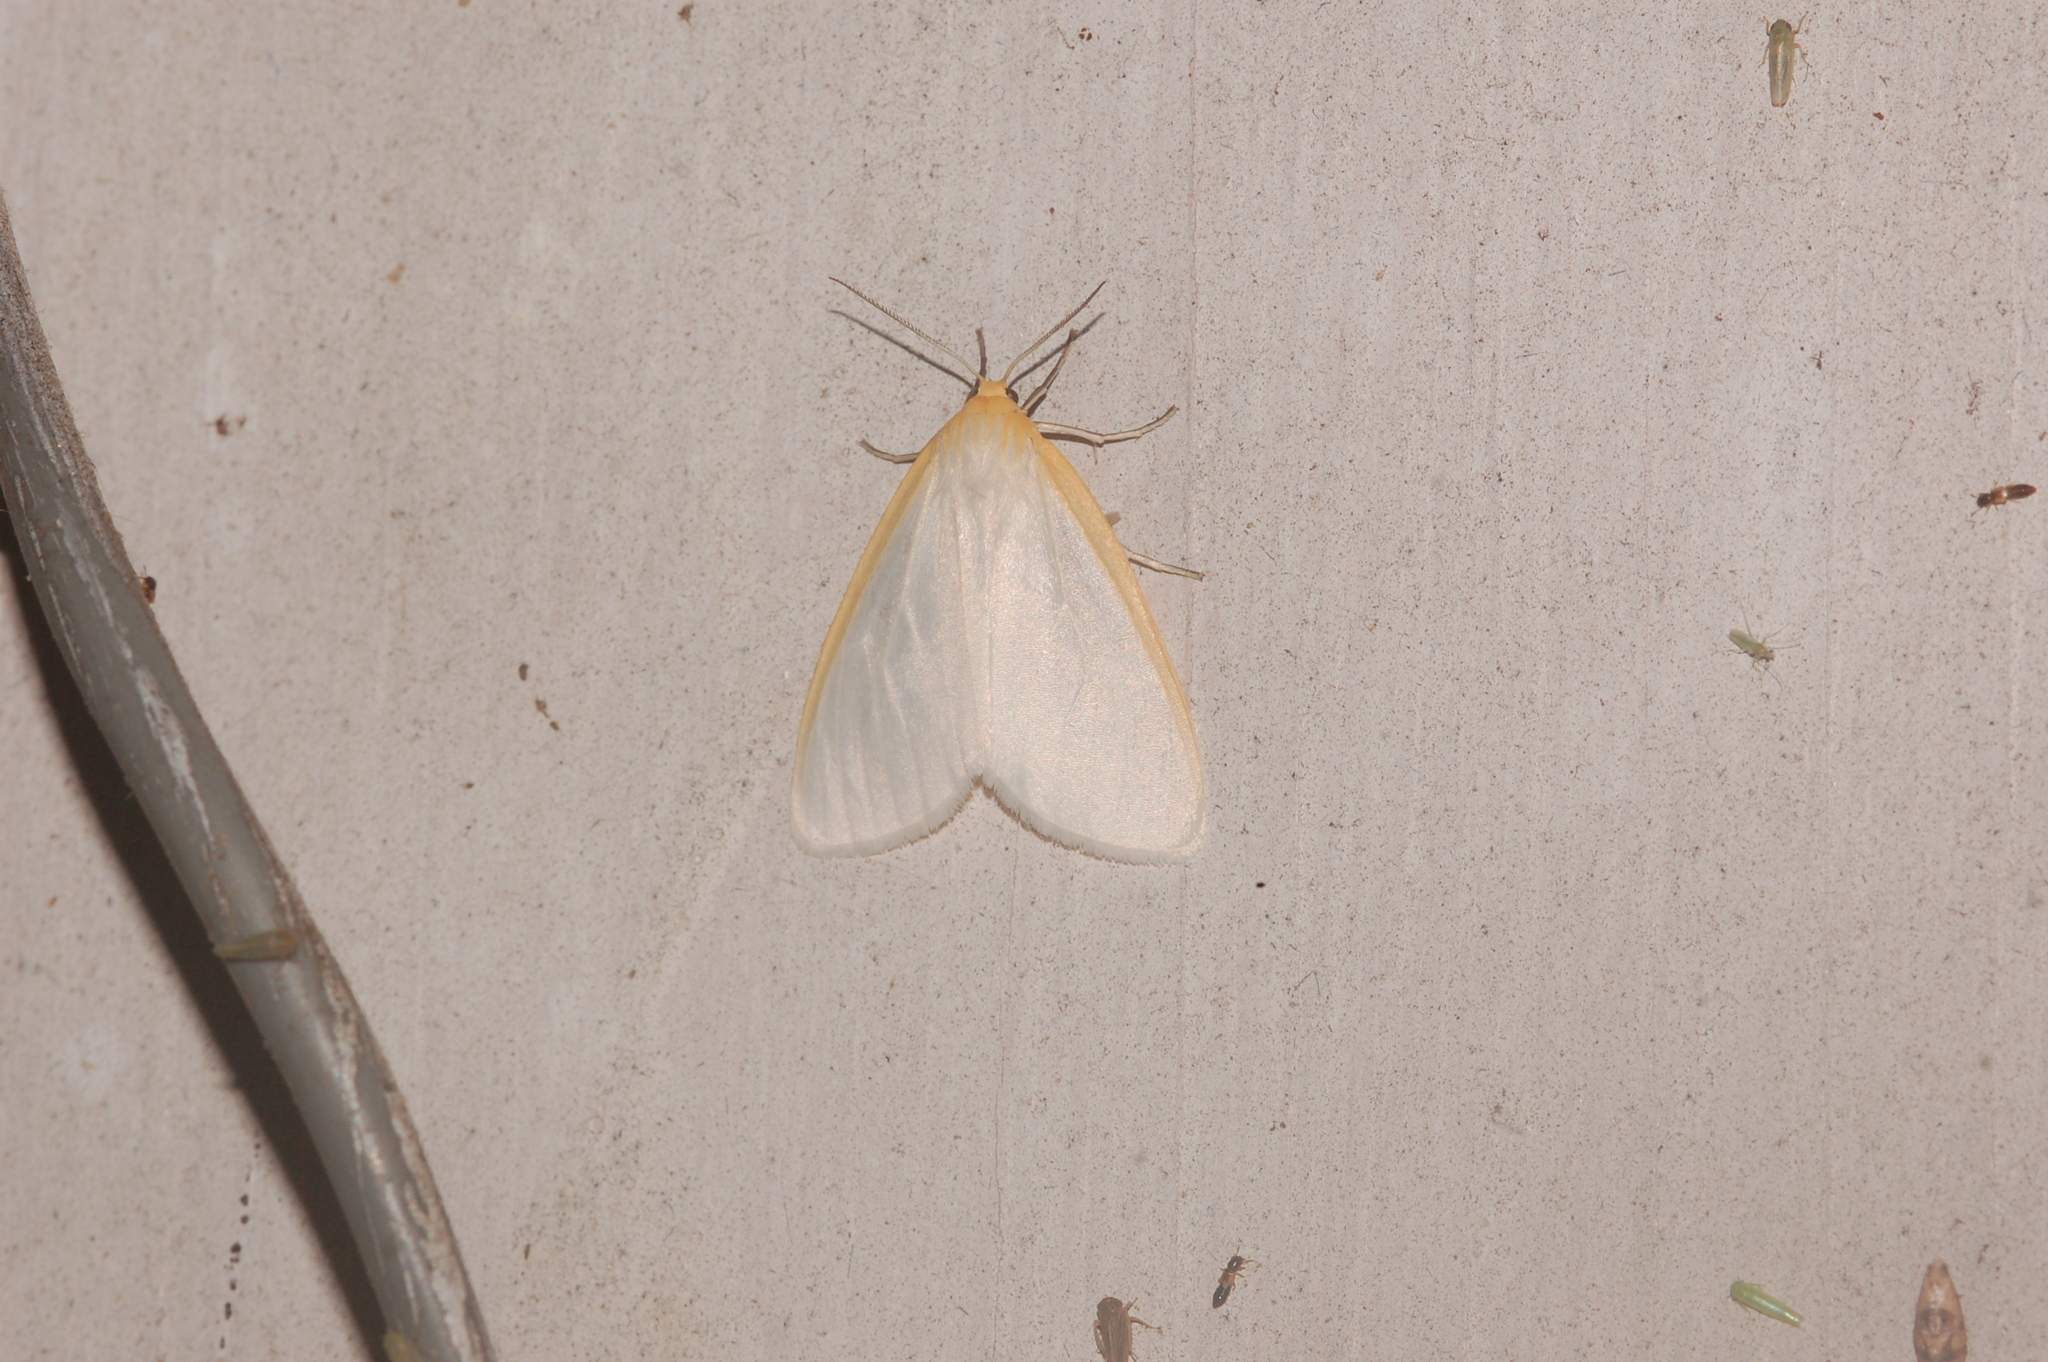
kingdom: Animalia
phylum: Arthropoda
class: Insecta
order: Lepidoptera
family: Erebidae
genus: Cycnia
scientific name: Cycnia tenera
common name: Delicate cycnia moth
